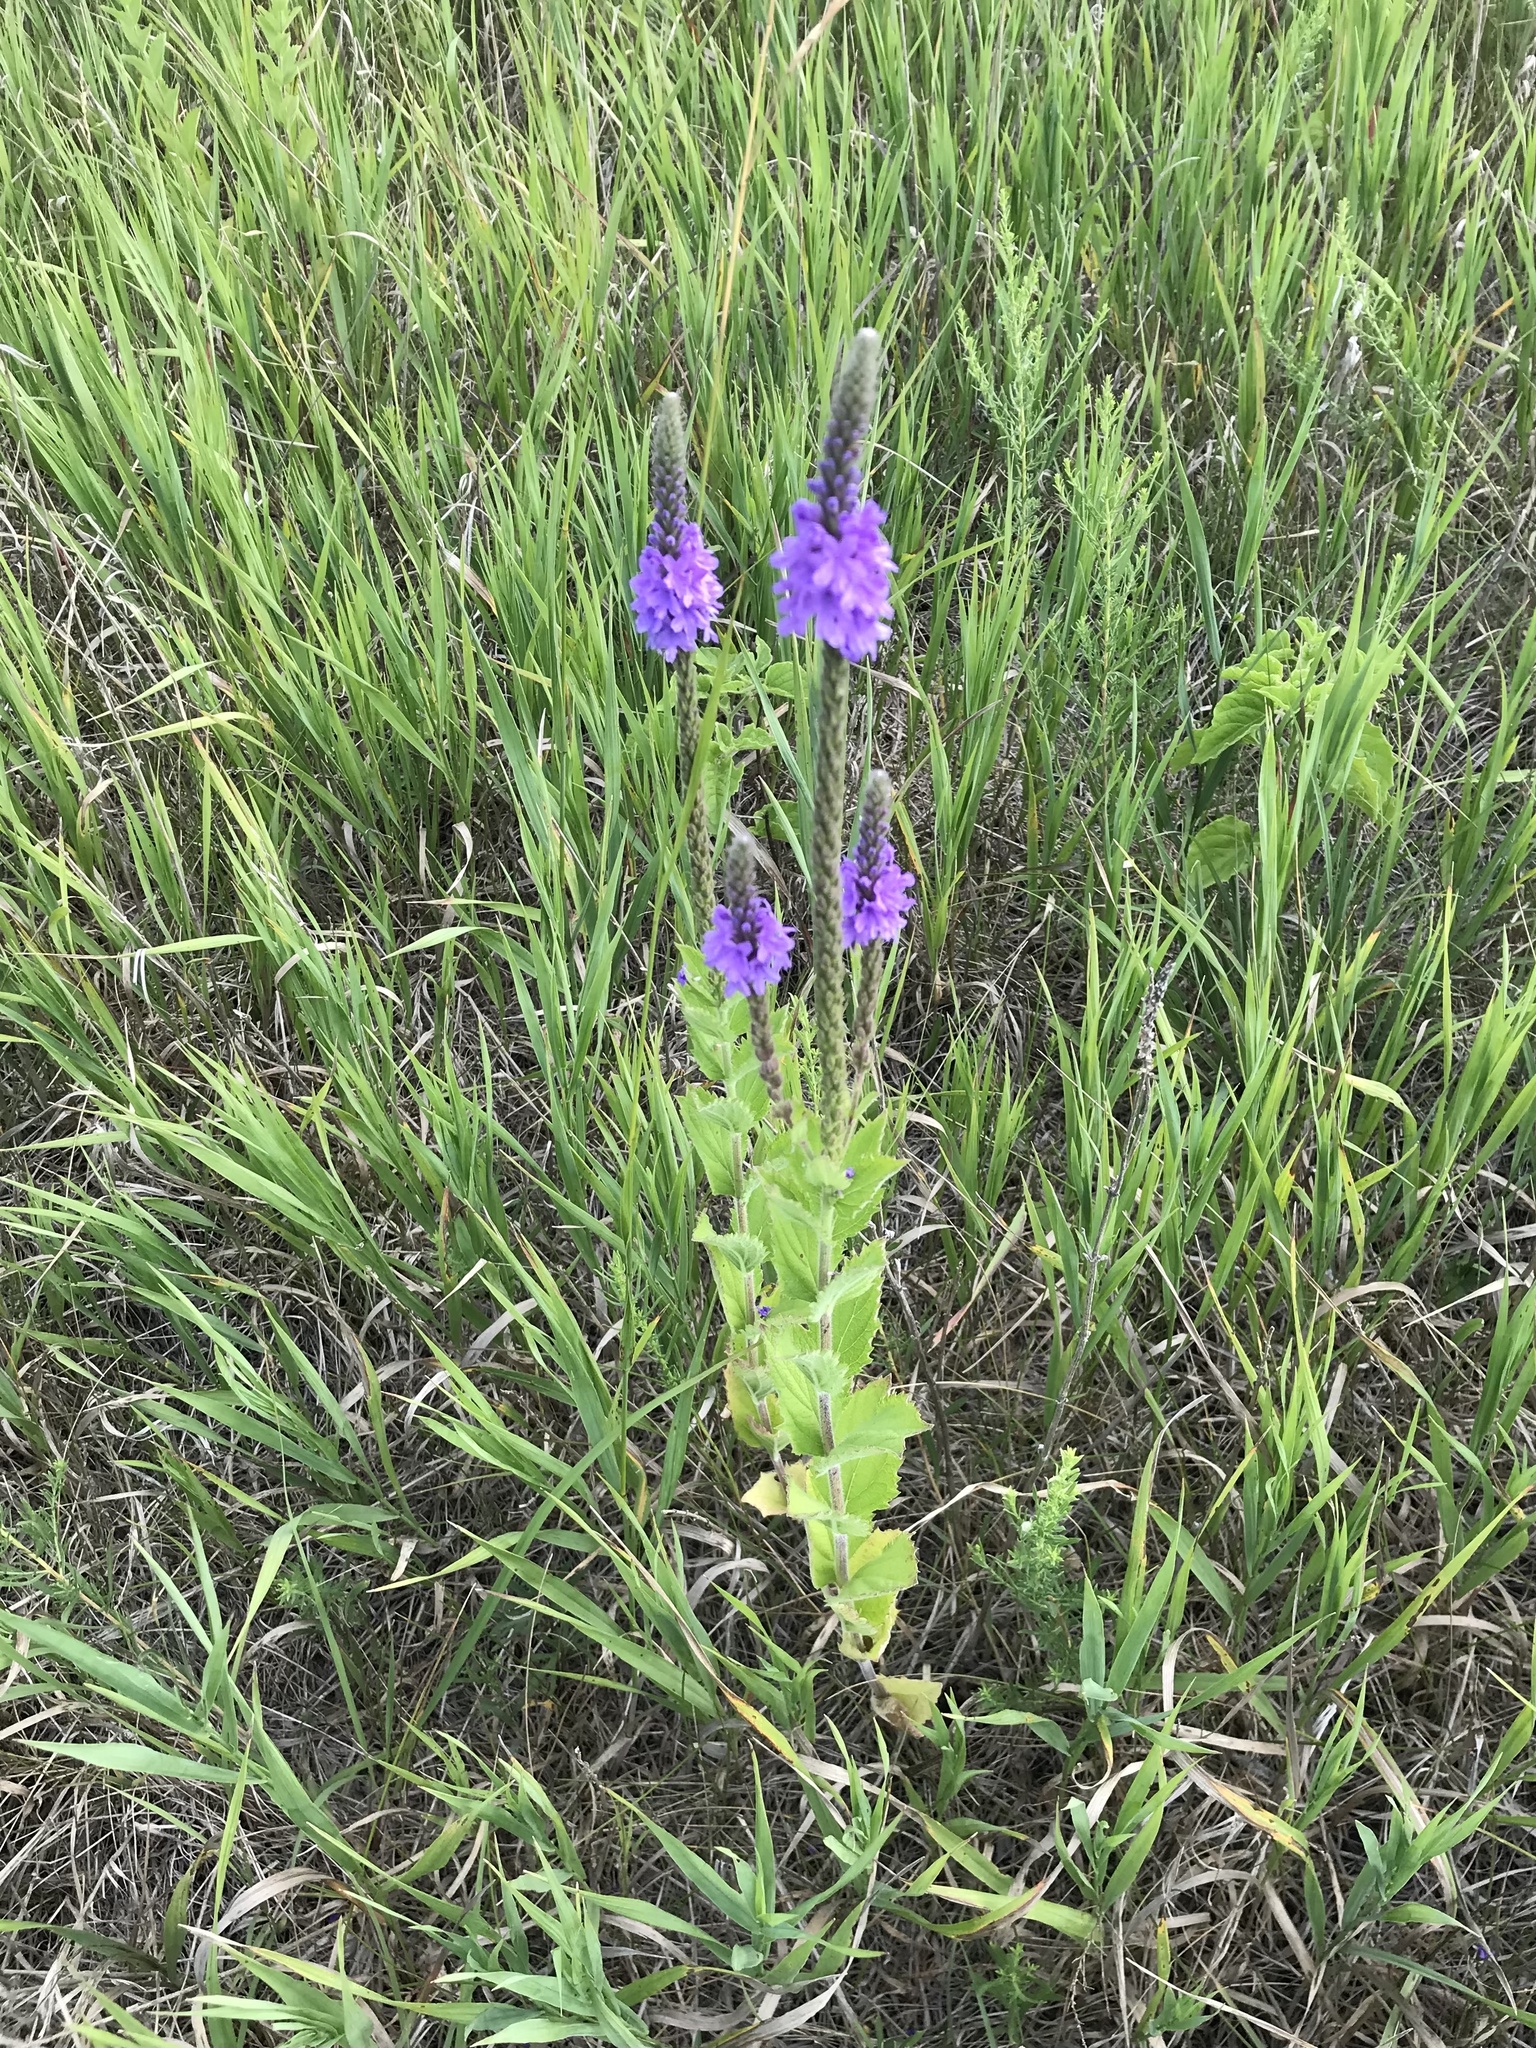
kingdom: Plantae
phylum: Tracheophyta
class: Magnoliopsida
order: Lamiales
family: Verbenaceae
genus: Verbena
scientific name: Verbena stricta
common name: Hoary vervain
